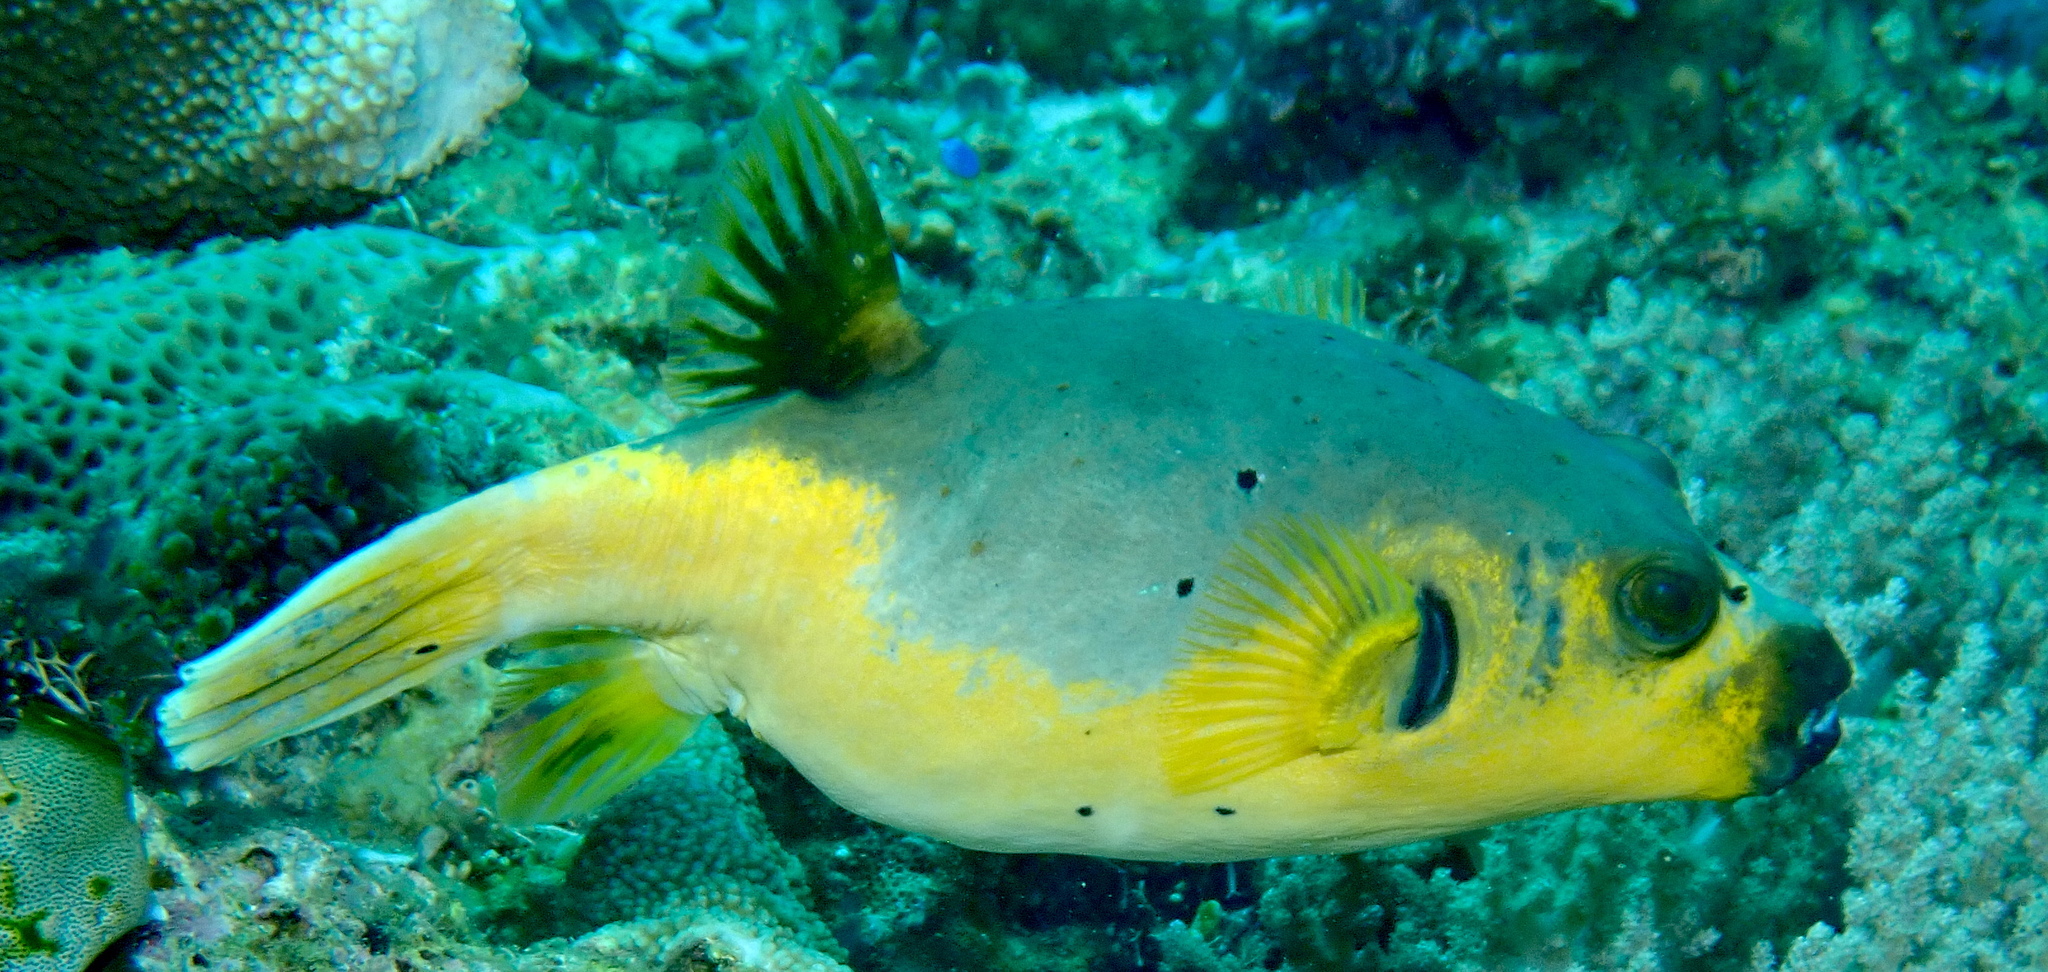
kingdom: Animalia
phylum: Chordata
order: Tetraodontiformes
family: Tetraodontidae
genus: Arothron
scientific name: Arothron nigropunctatus
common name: Black spotted blow fish
